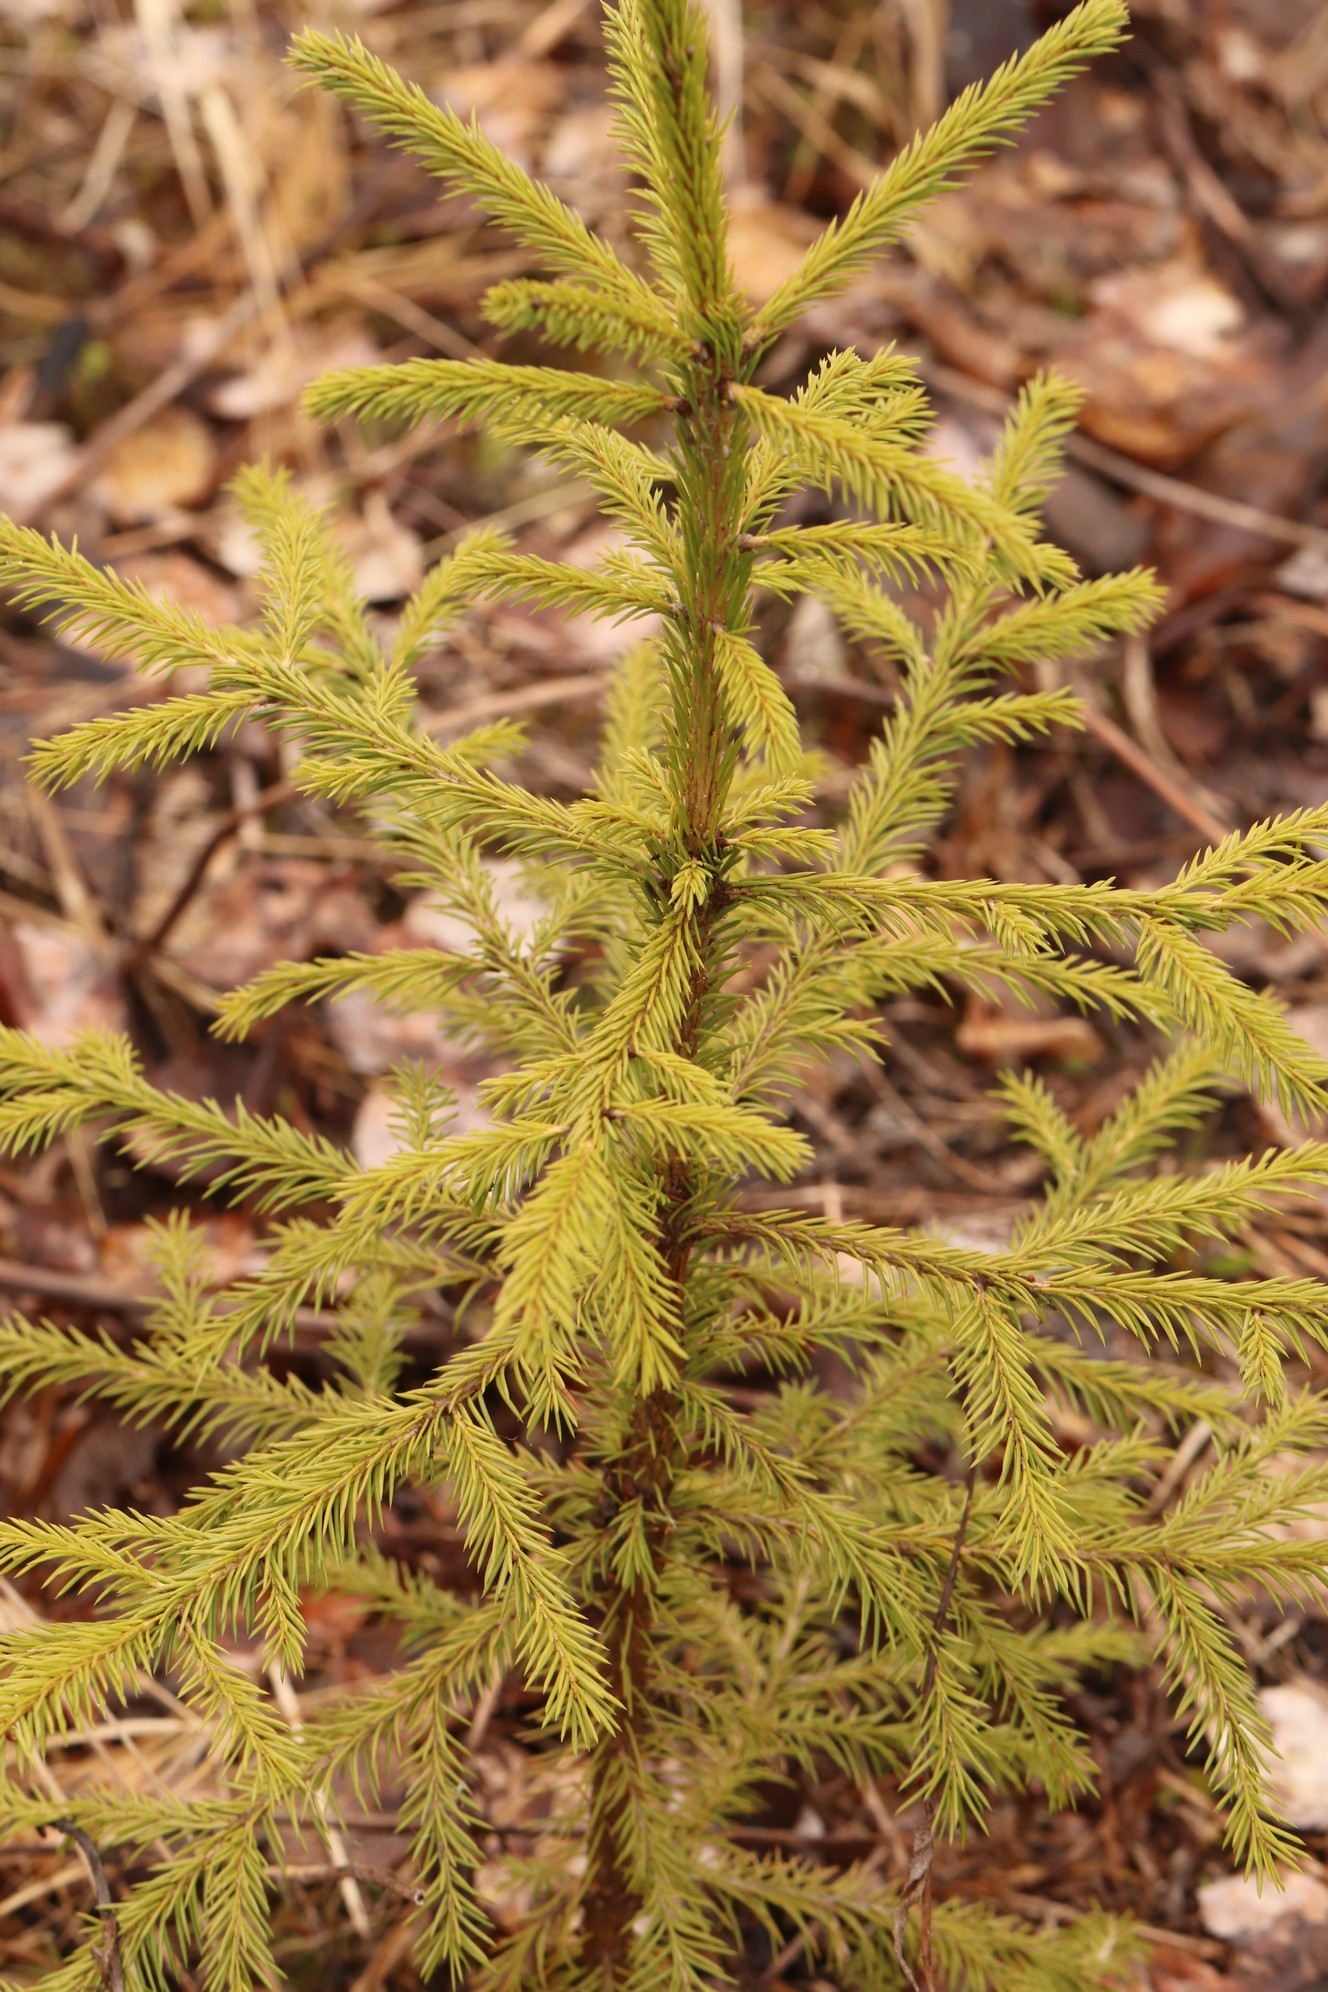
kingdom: Plantae
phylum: Tracheophyta
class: Pinopsida
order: Pinales
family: Pinaceae
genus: Picea
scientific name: Picea obovata
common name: Siberian spruce
